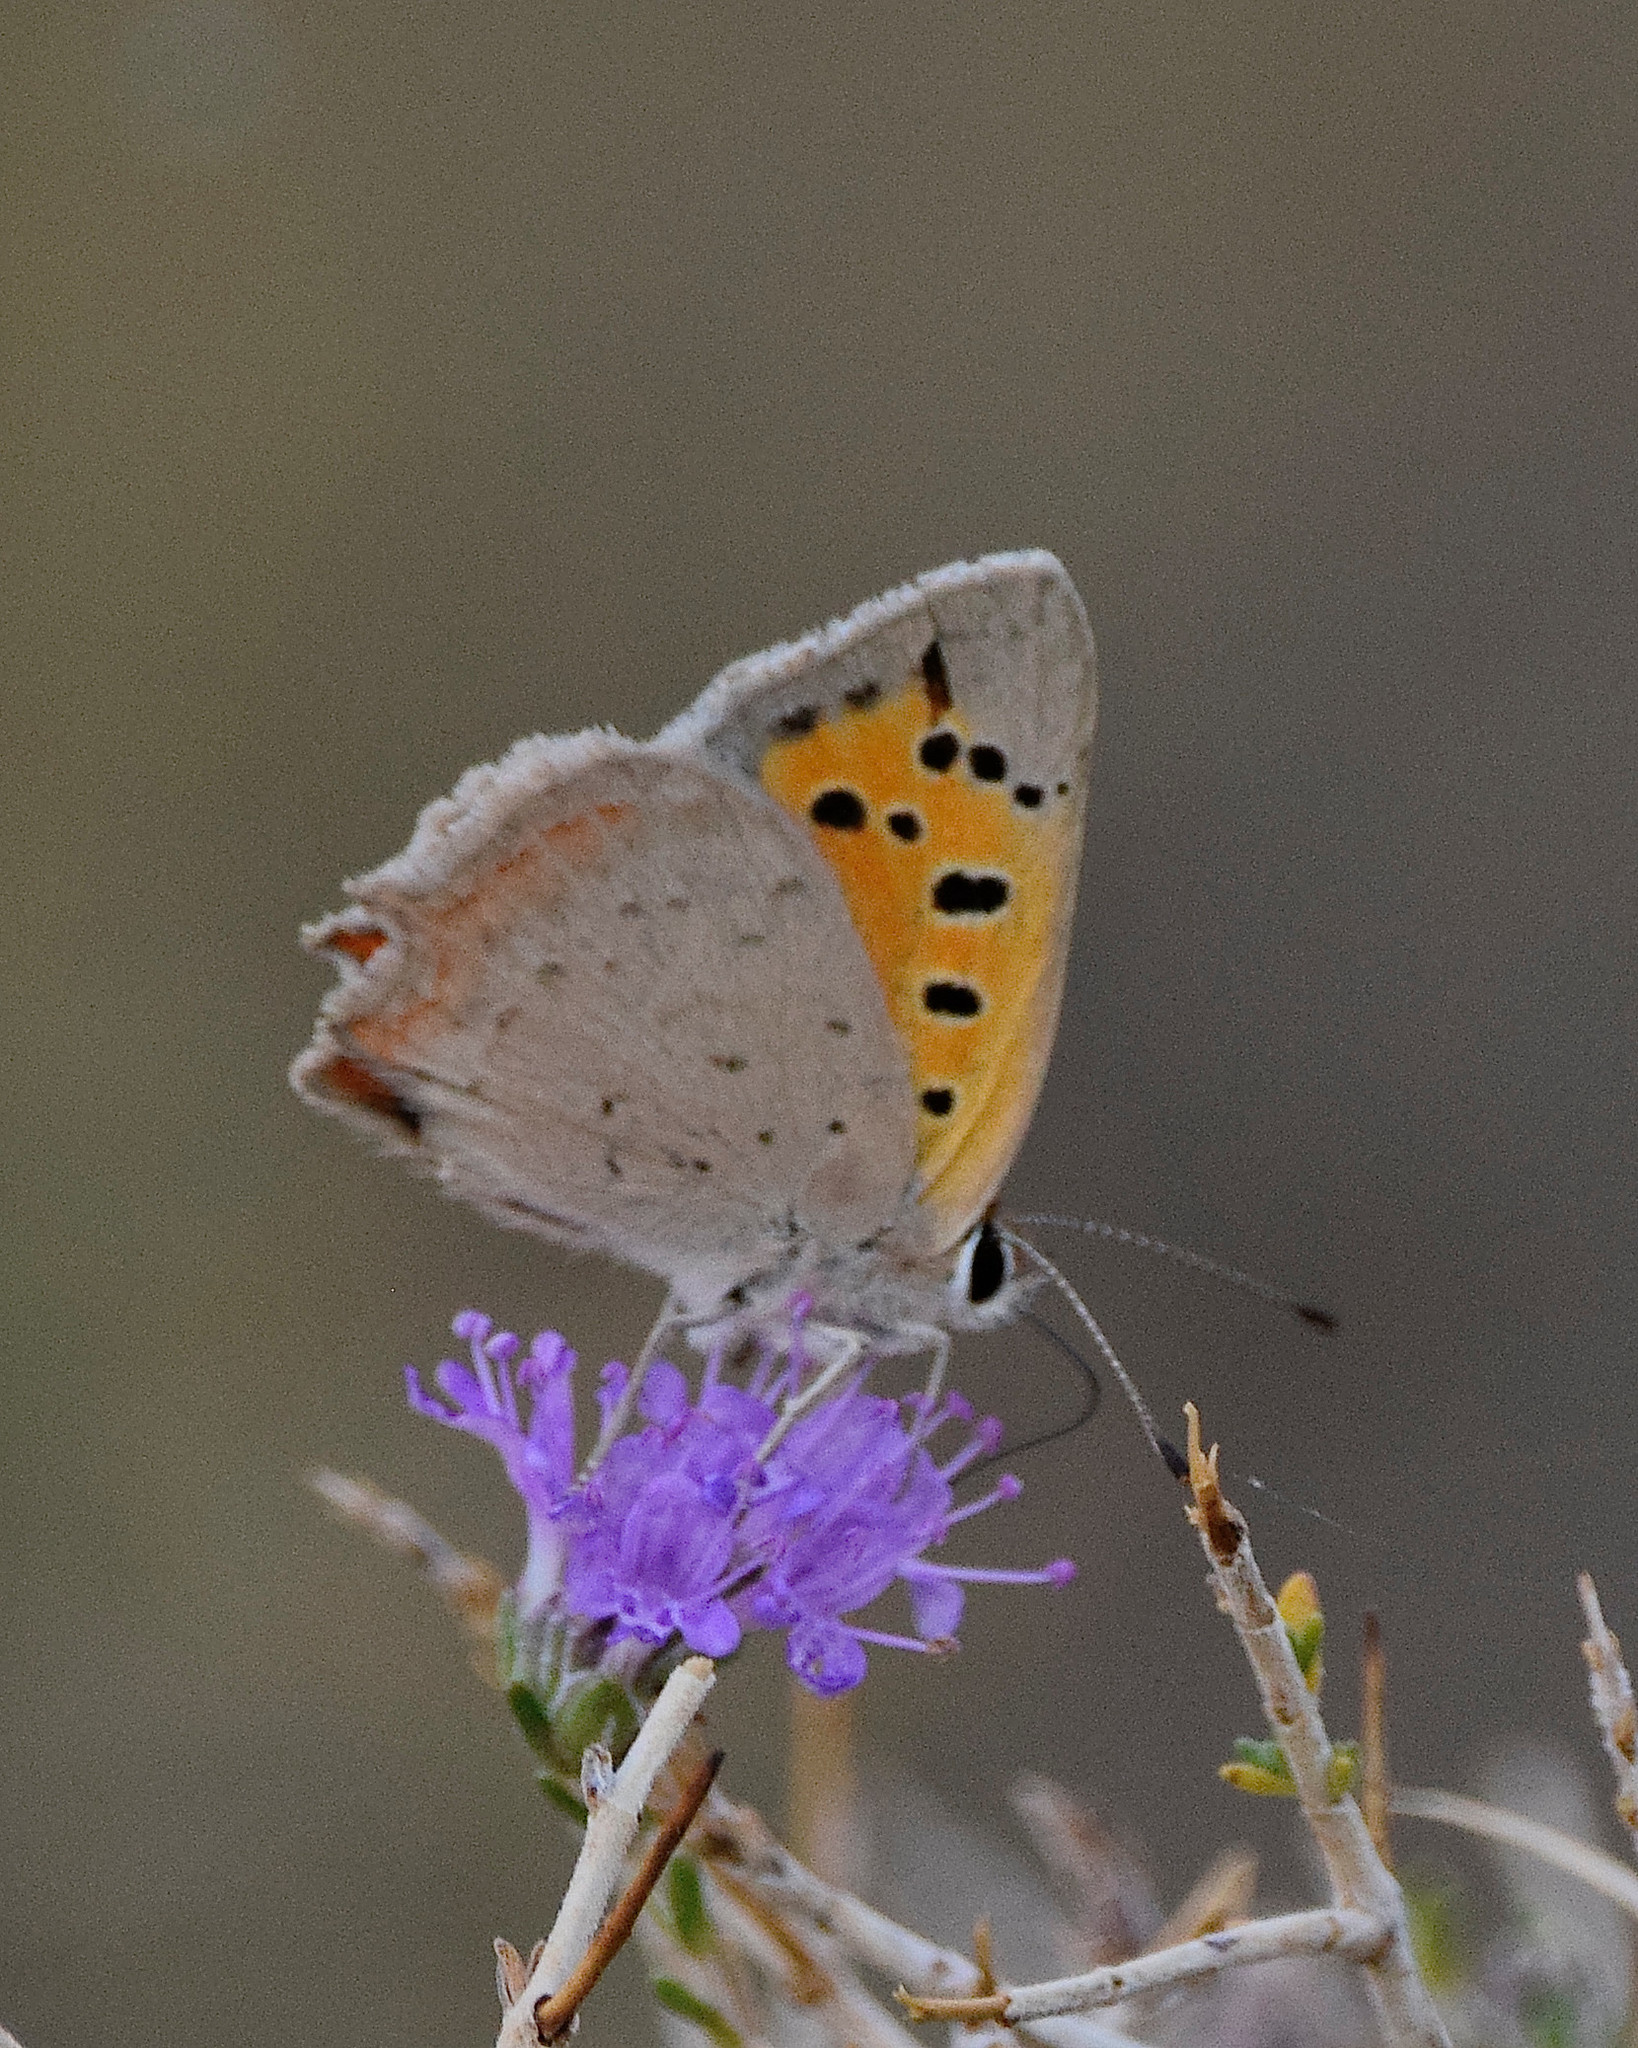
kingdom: Animalia
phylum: Arthropoda
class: Insecta
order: Lepidoptera
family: Lycaenidae
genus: Lycaena
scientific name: Lycaena phlaeas
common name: Small copper
